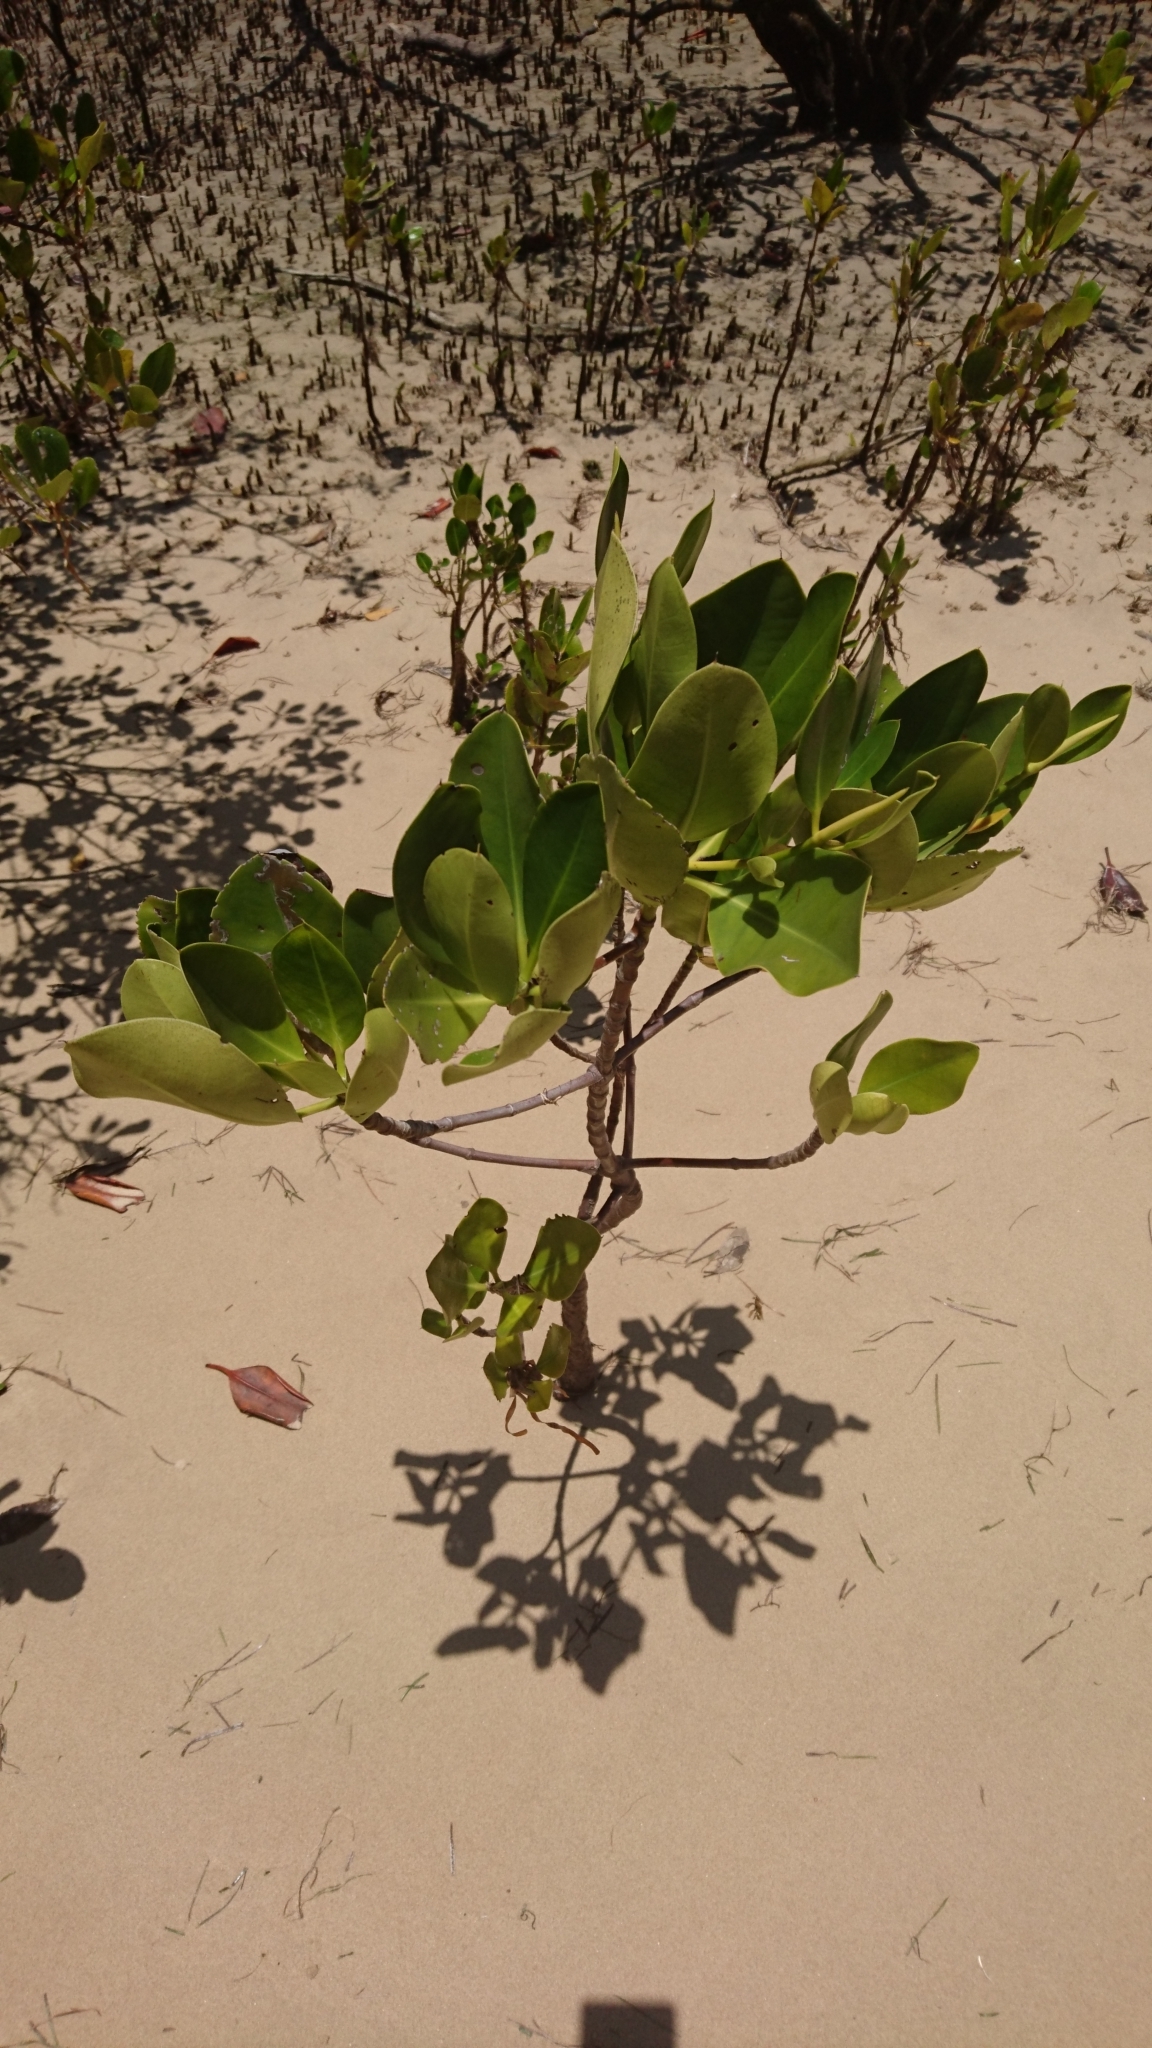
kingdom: Plantae
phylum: Tracheophyta
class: Magnoliopsida
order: Malpighiales
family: Rhizophoraceae
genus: Rhizophora
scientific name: Rhizophora stylosa
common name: Red mangrove
